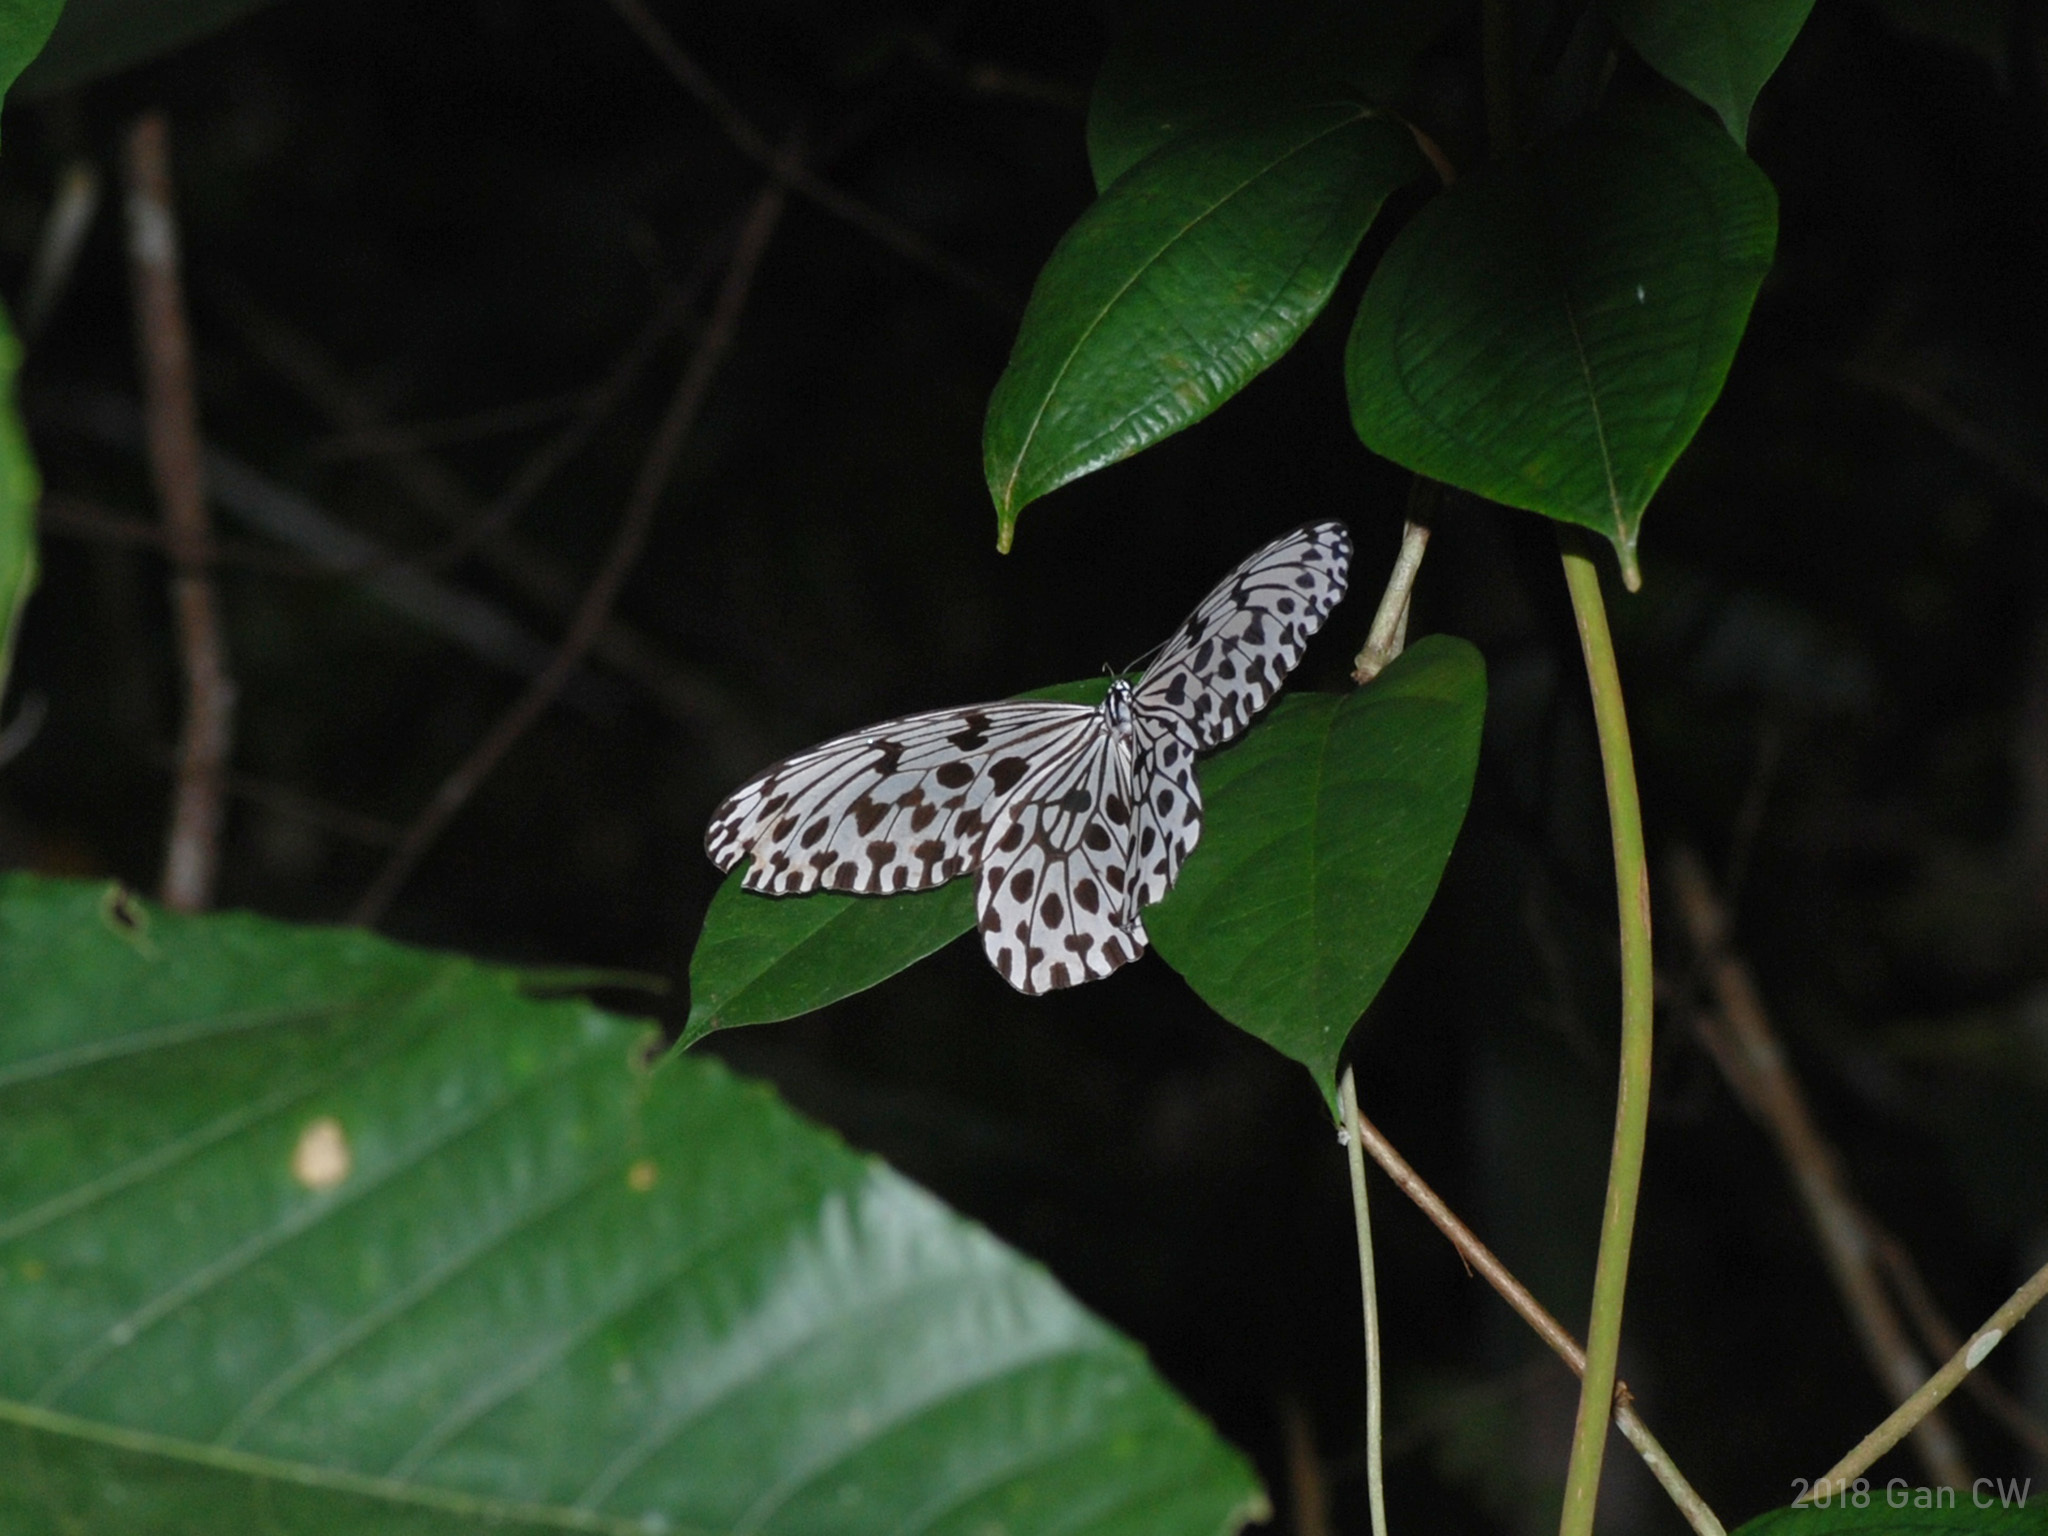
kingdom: Animalia
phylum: Arthropoda
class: Insecta
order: Lepidoptera
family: Nymphalidae
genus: Idea
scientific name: Idea hypermnestra
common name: Malayan tree nymph
